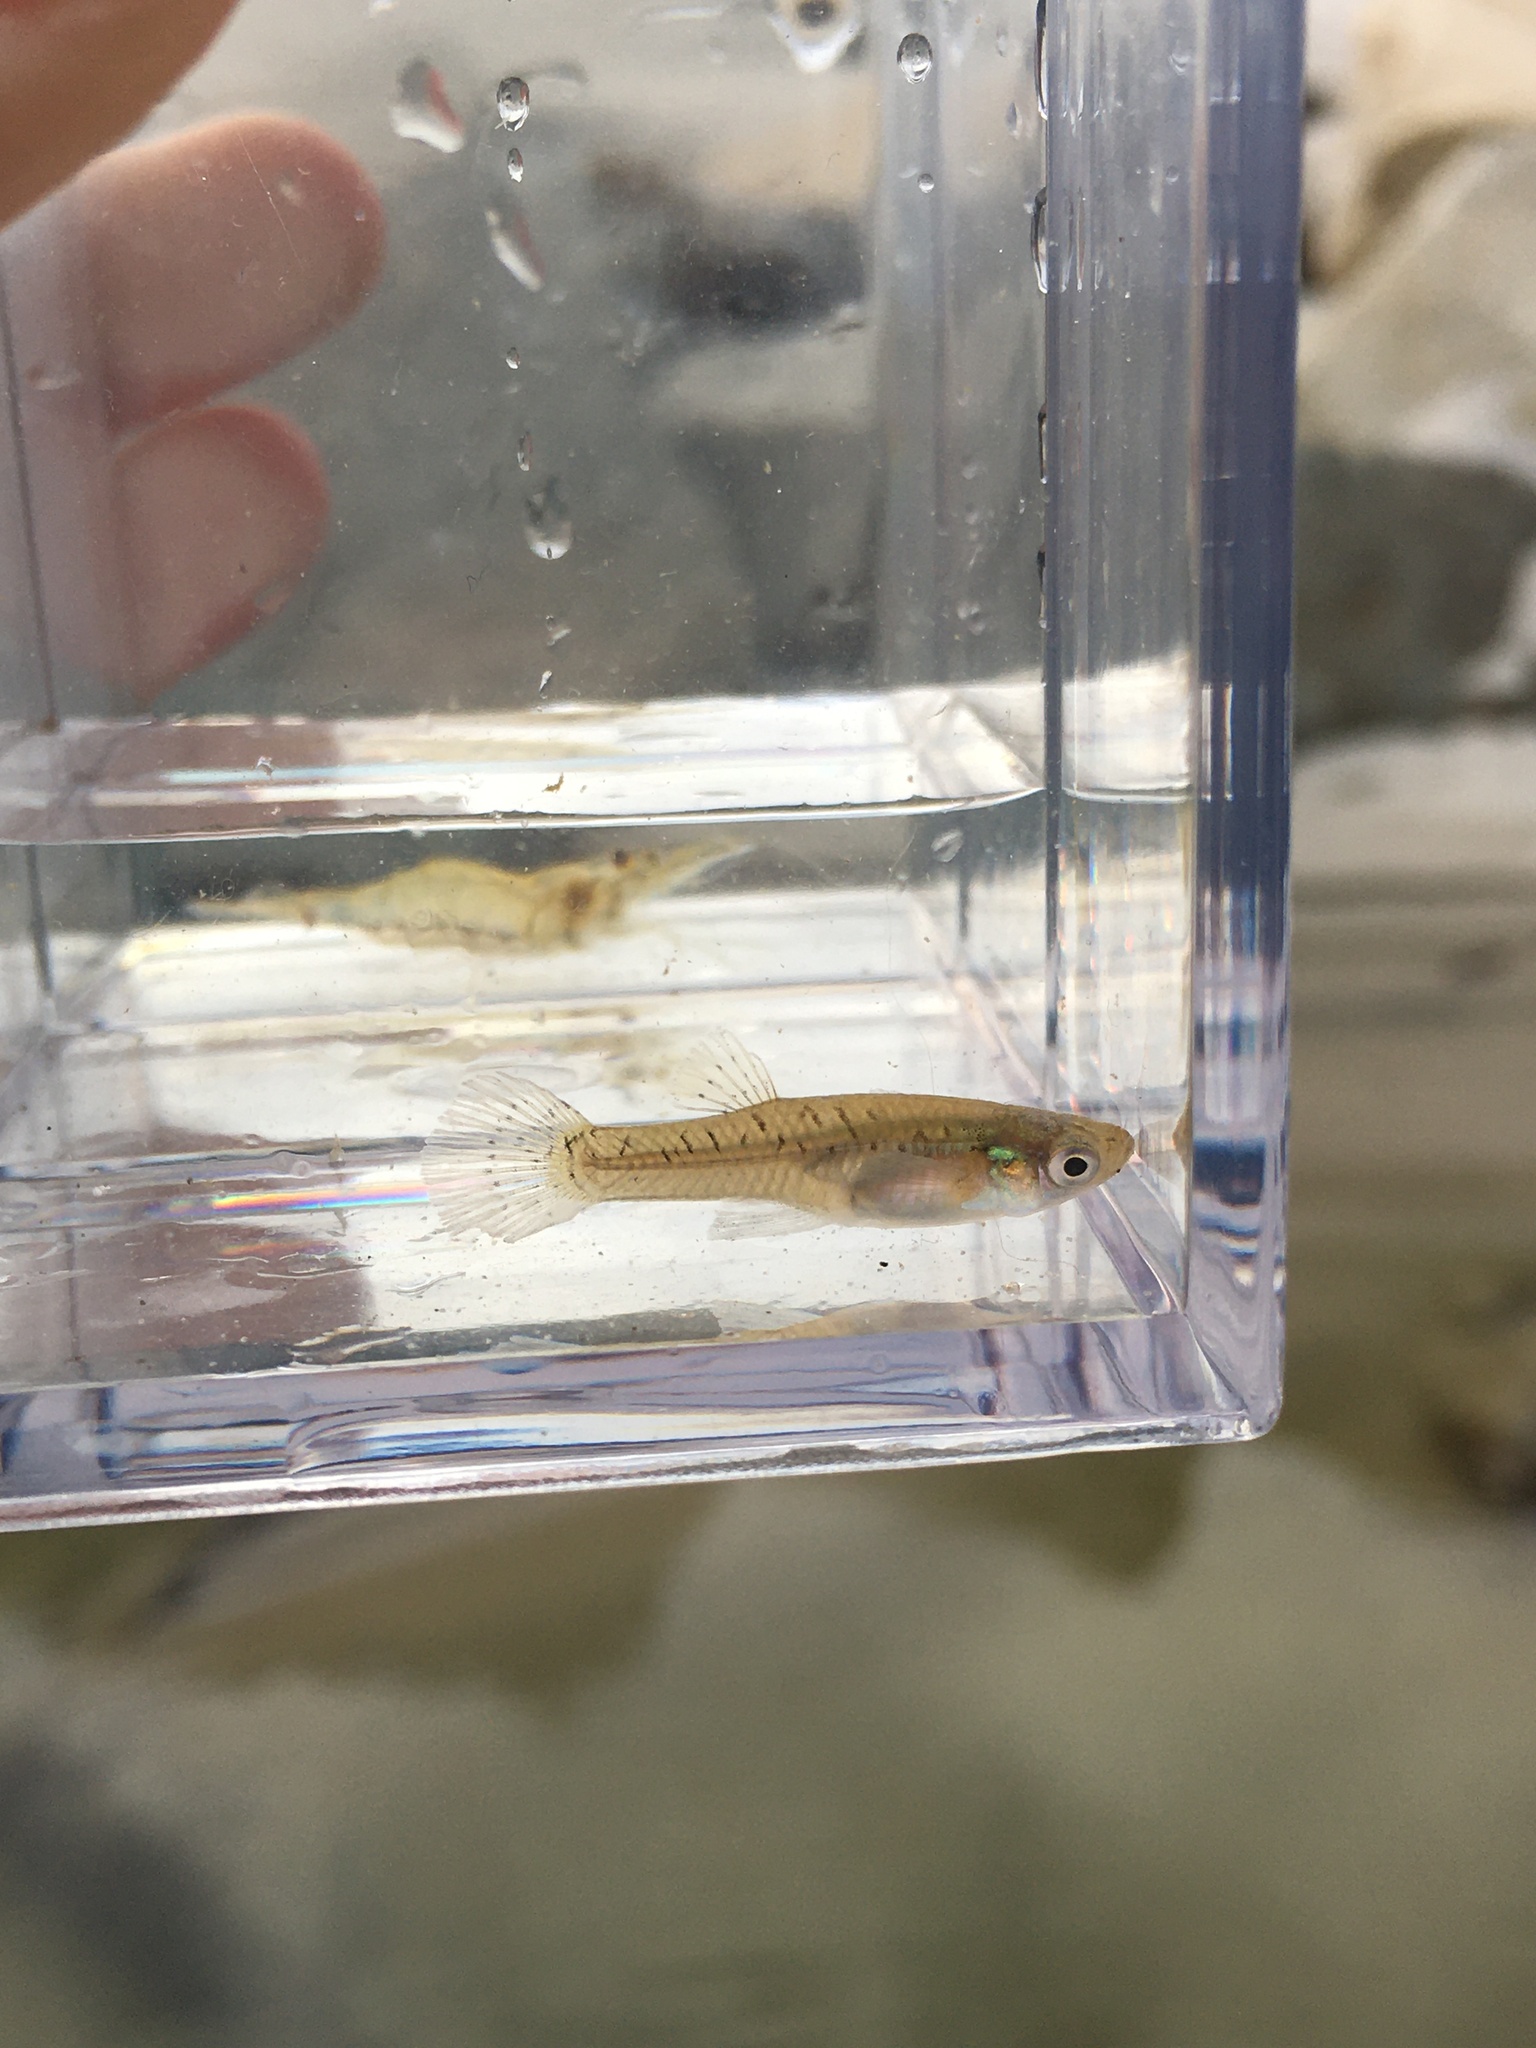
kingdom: Animalia
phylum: Chordata
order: Cyprinodontiformes
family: Poeciliidae
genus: Gambusia
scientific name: Gambusia holbrooki
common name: Eastern mosquitofish
